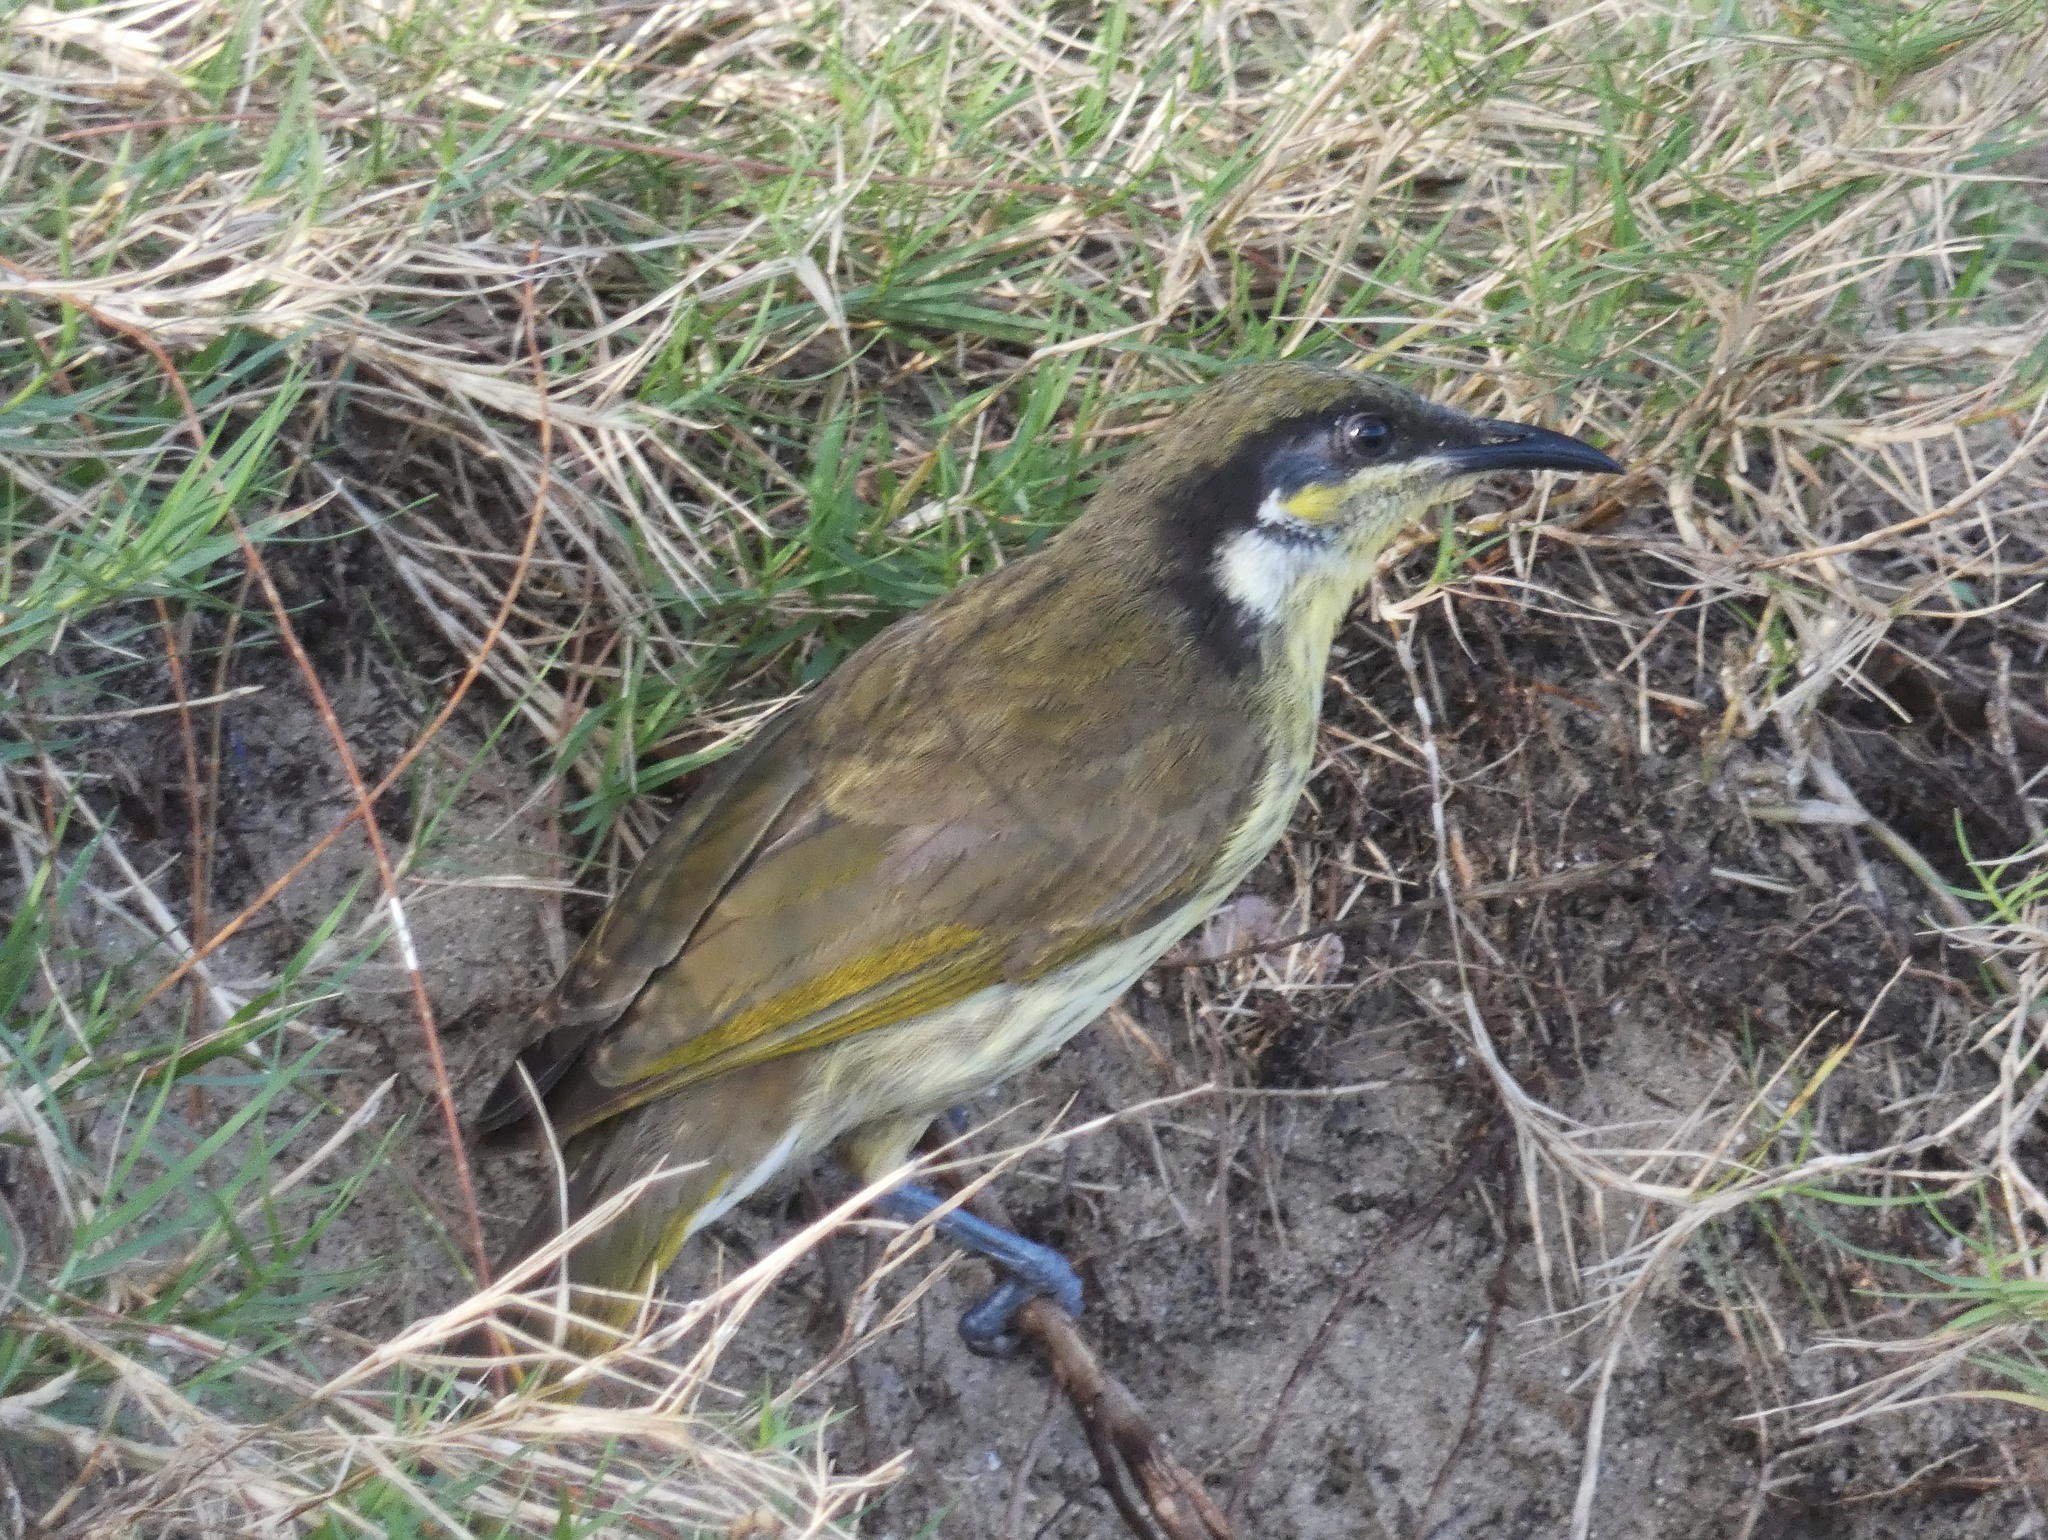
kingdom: Animalia
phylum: Chordata
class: Aves
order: Passeriformes
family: Meliphagidae
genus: Gavicalis
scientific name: Gavicalis versicolor
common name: Varied honeyeater
